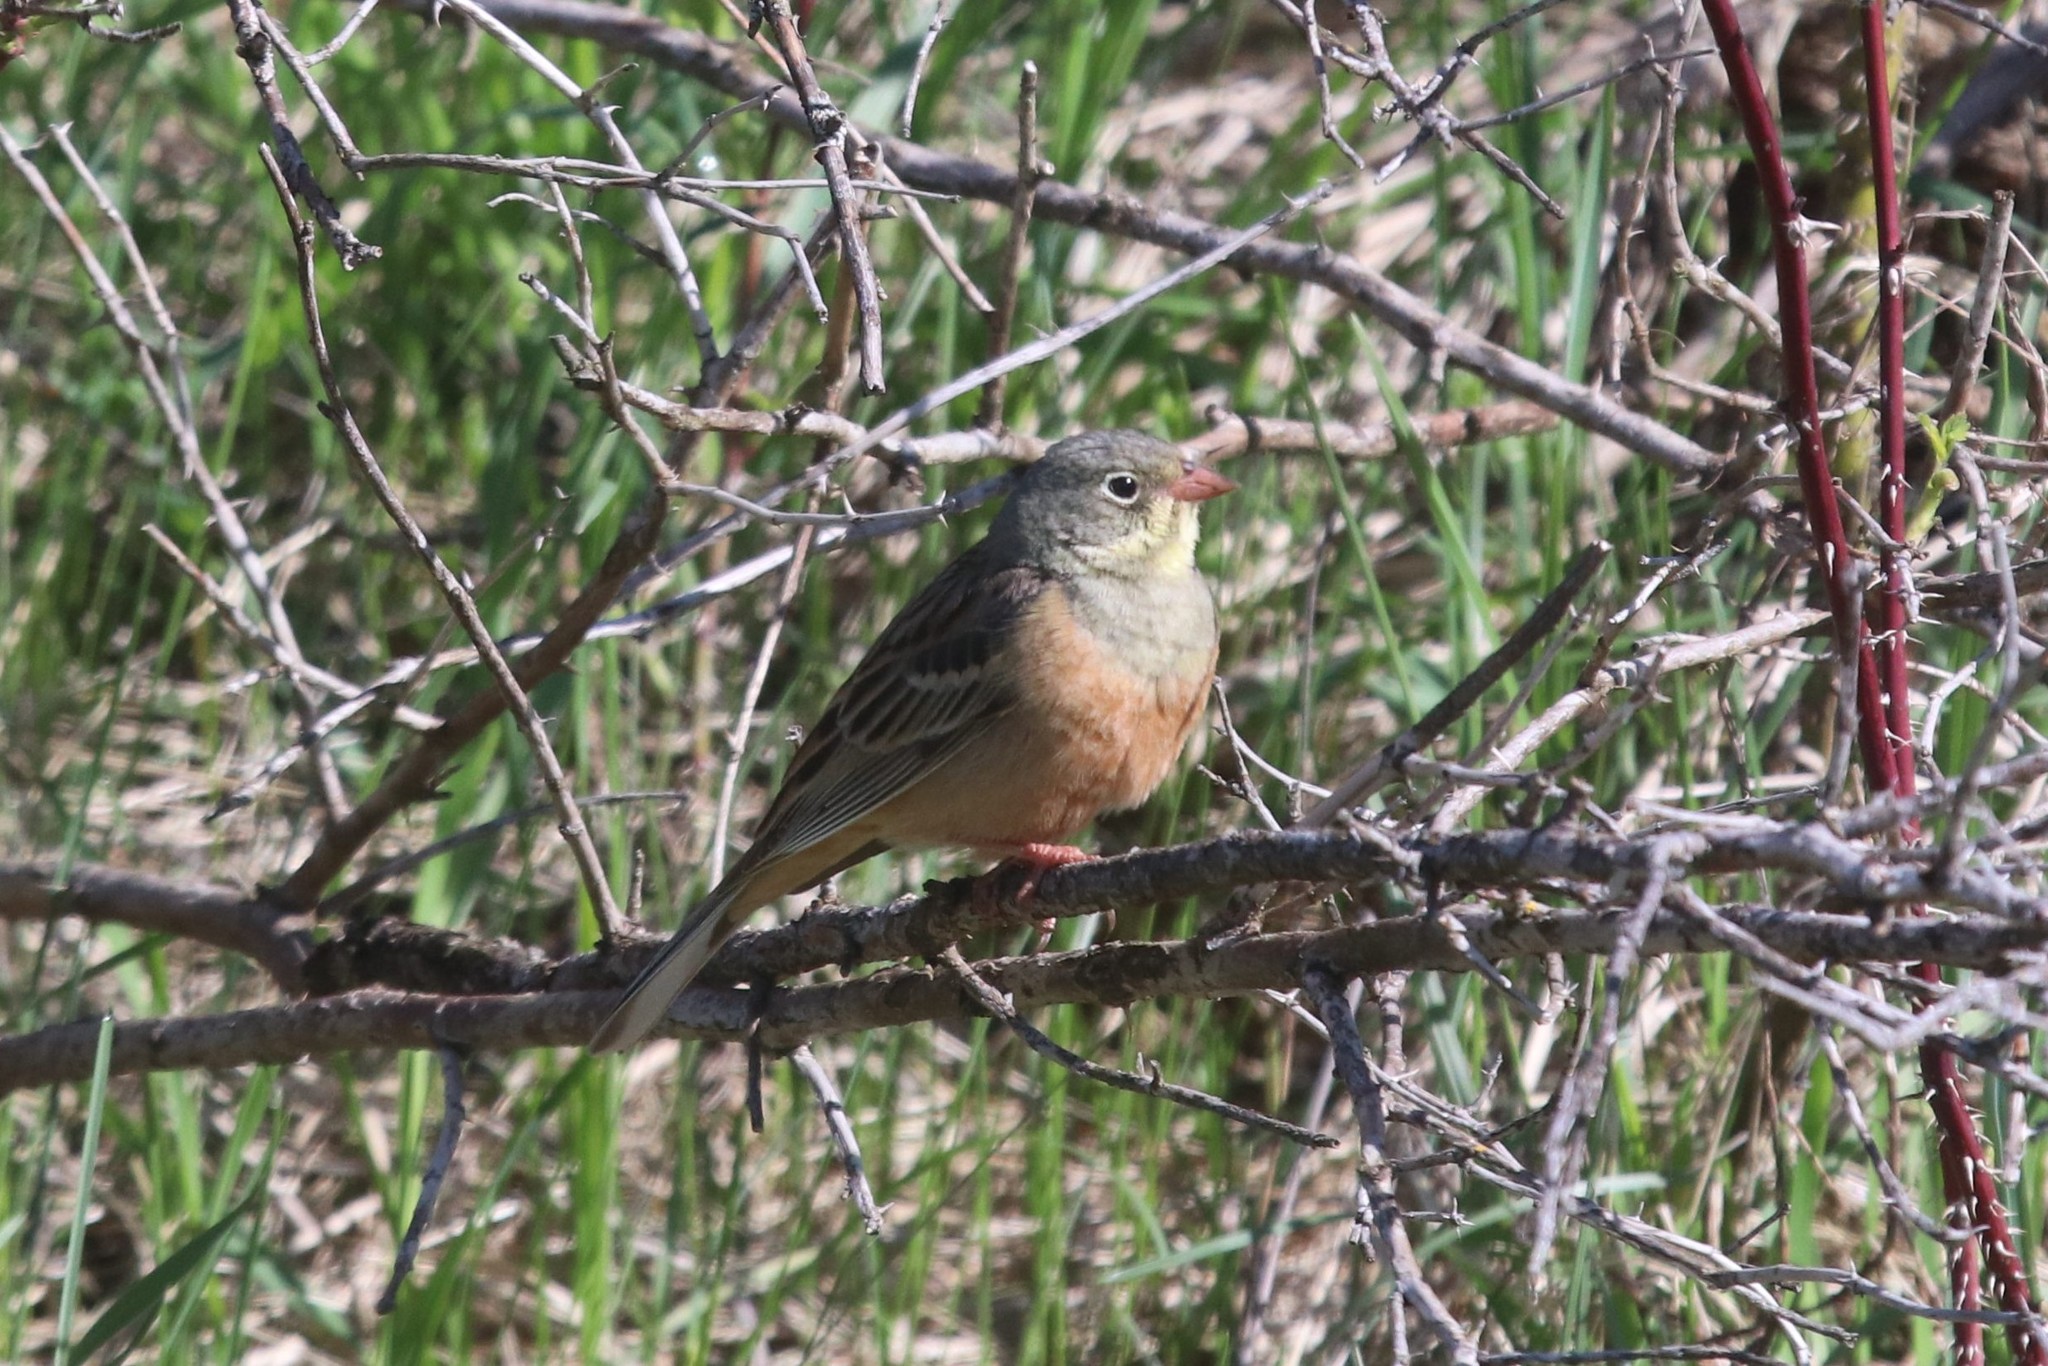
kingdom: Animalia
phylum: Chordata
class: Aves
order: Passeriformes
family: Emberizidae
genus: Emberiza
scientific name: Emberiza hortulana
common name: Ortolan bunting
